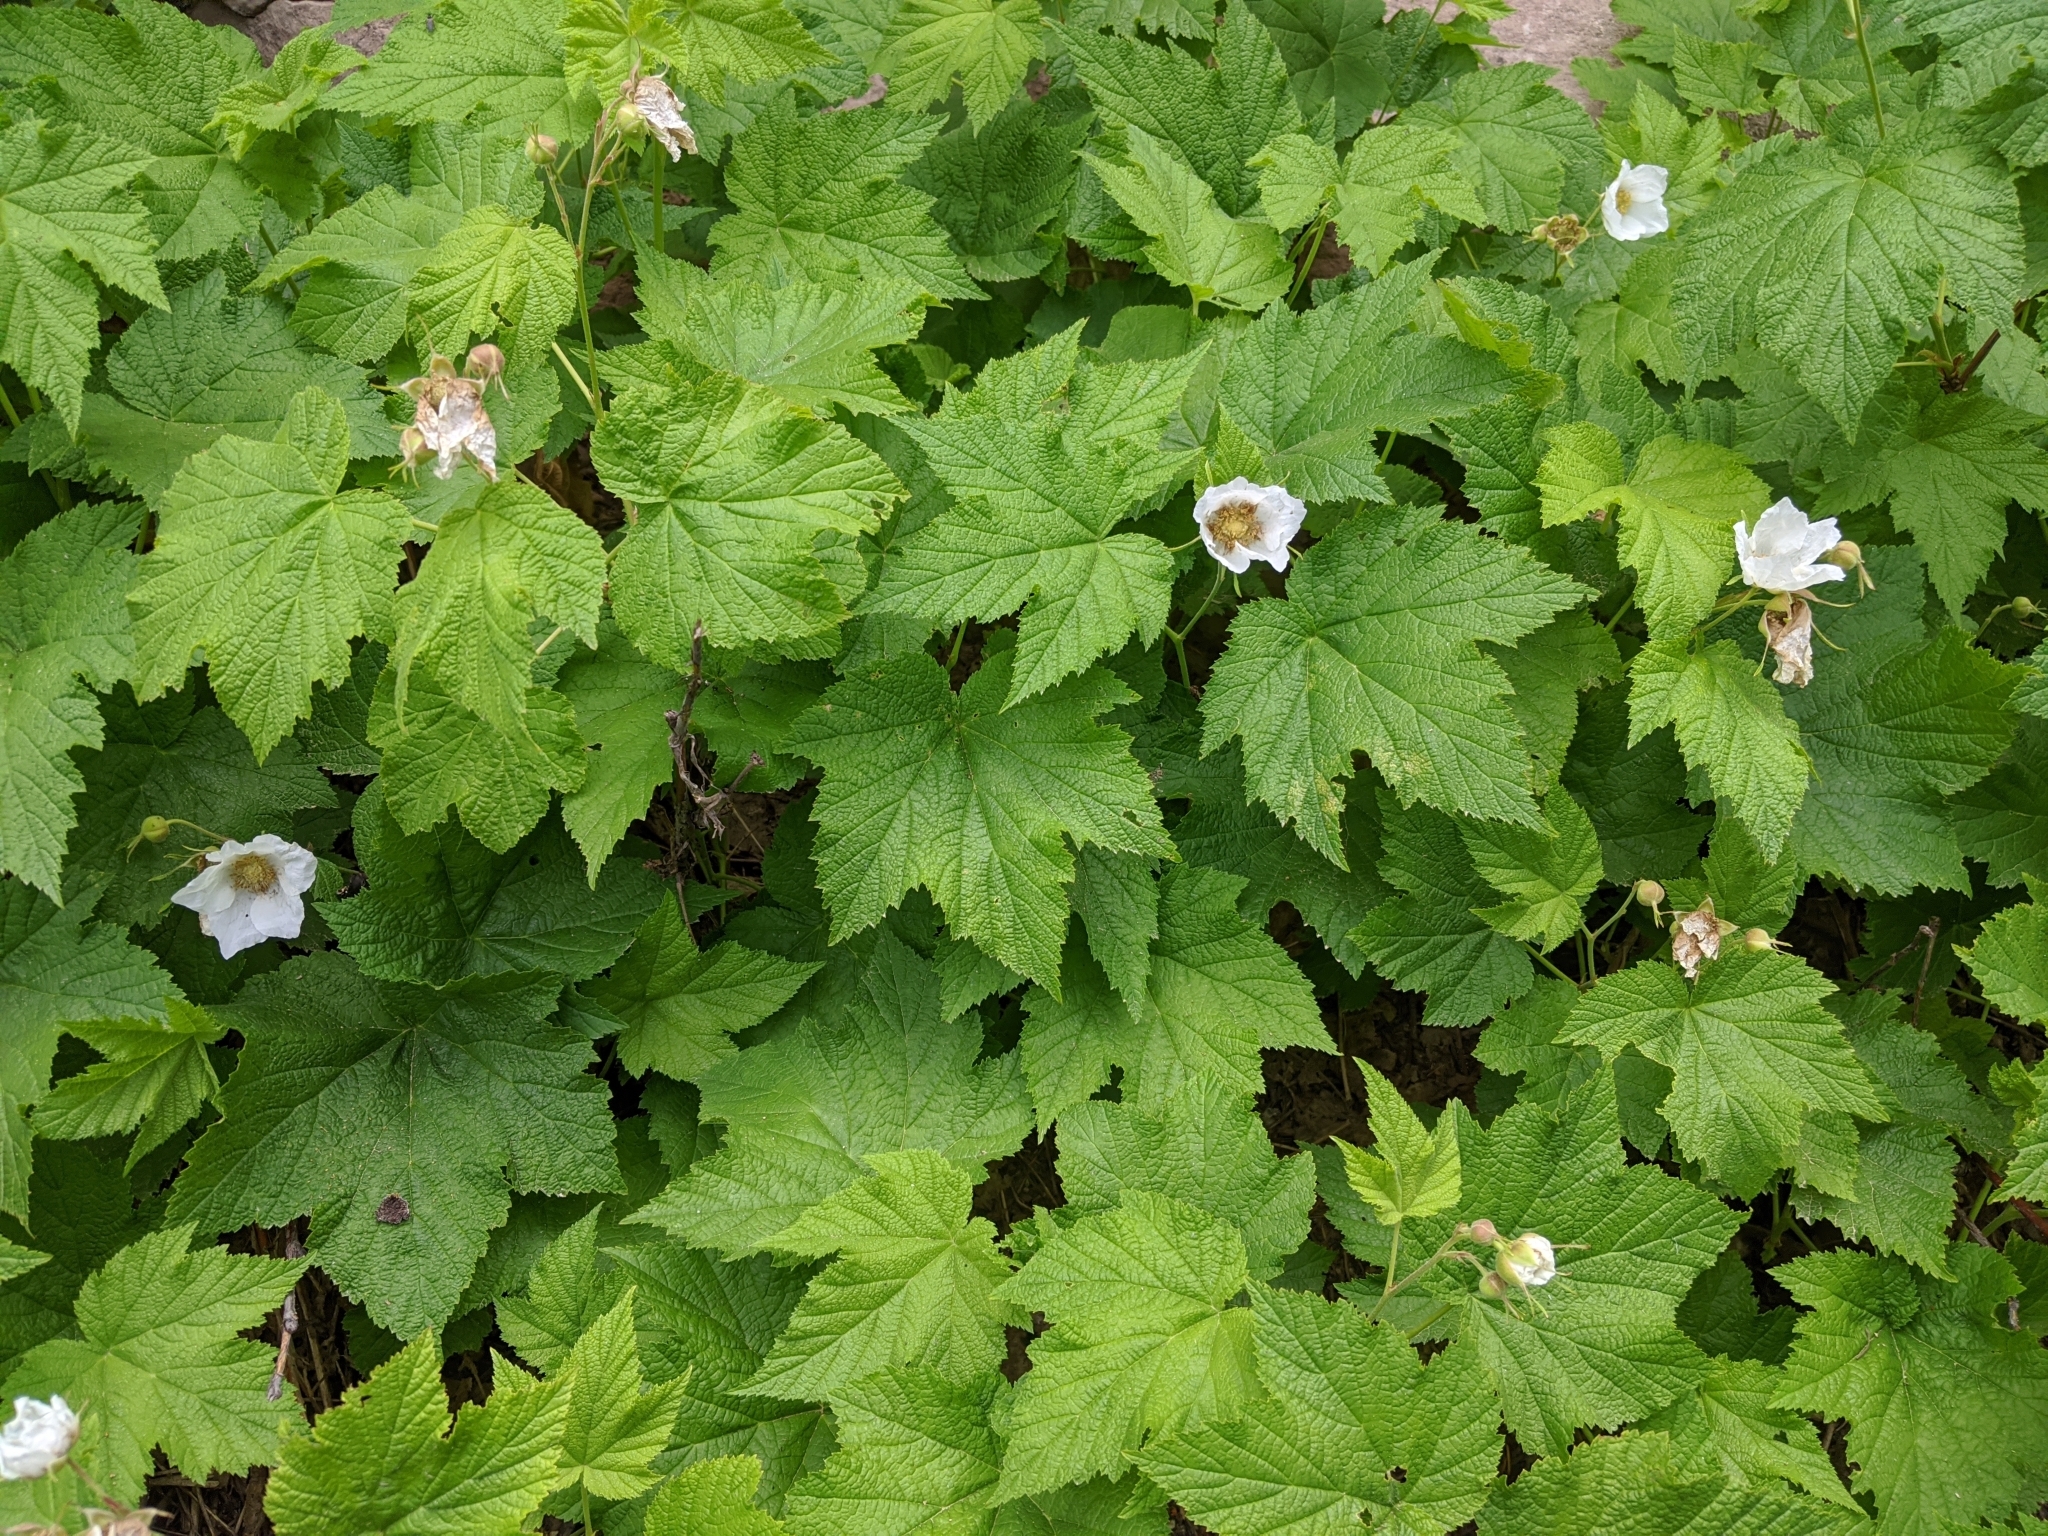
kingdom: Plantae
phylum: Tracheophyta
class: Magnoliopsida
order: Rosales
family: Rosaceae
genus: Rubus
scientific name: Rubus parviflorus
